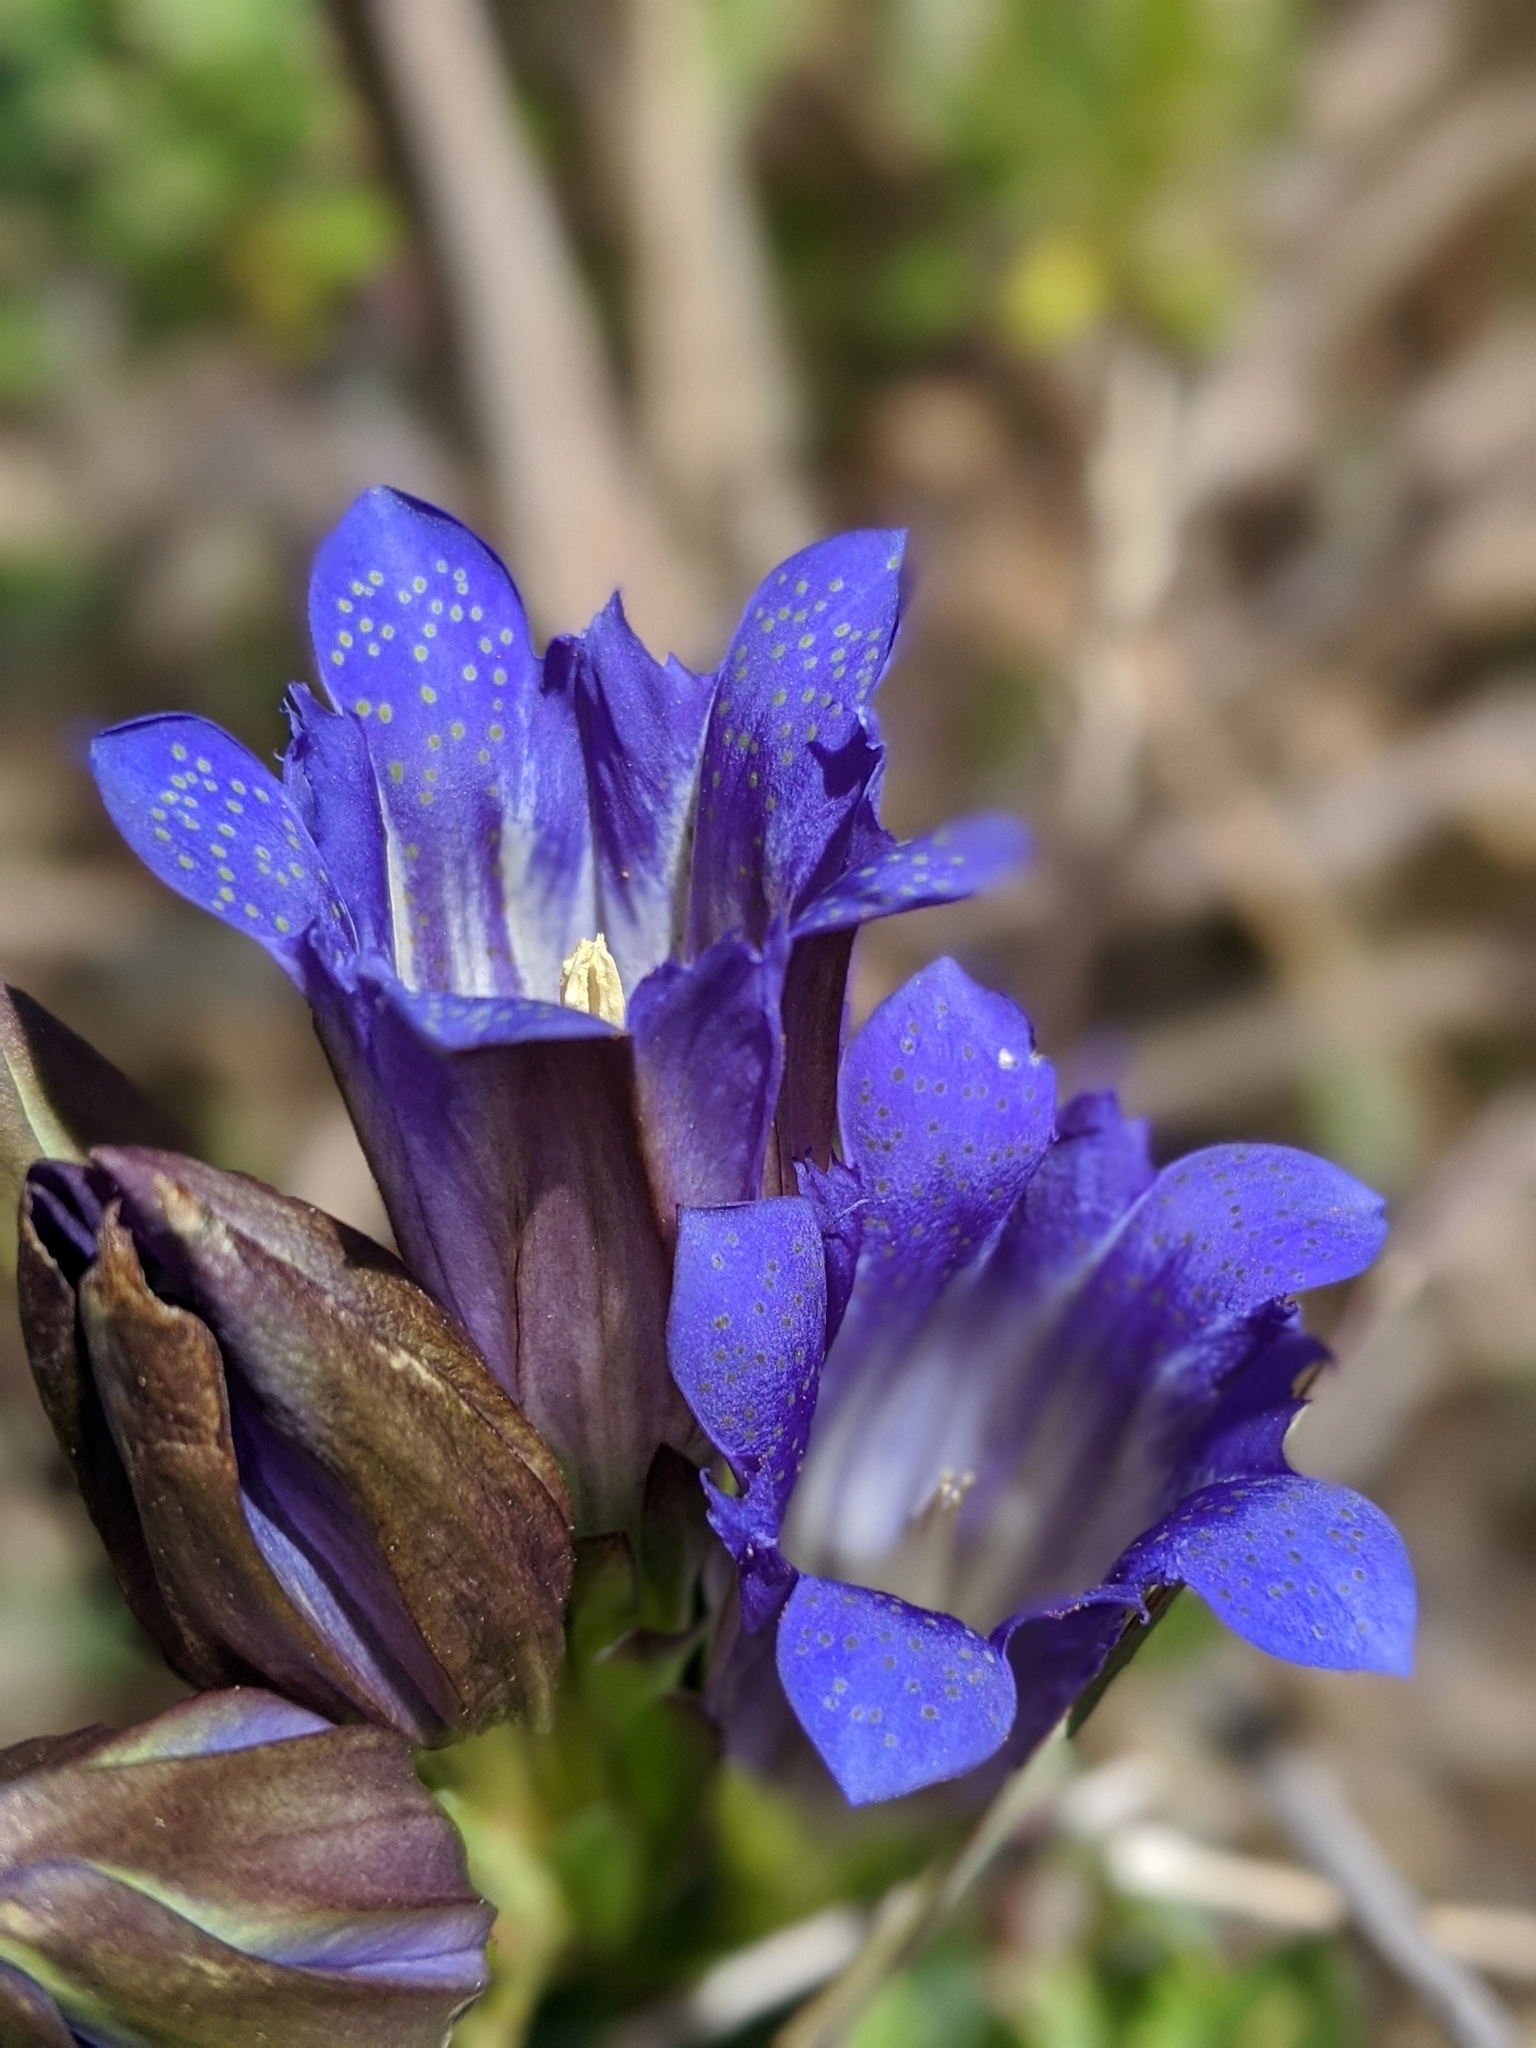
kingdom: Plantae
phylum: Tracheophyta
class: Magnoliopsida
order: Gentianales
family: Gentianaceae
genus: Gentiana
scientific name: Gentiana affinis
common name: Rocky mountain gentian
